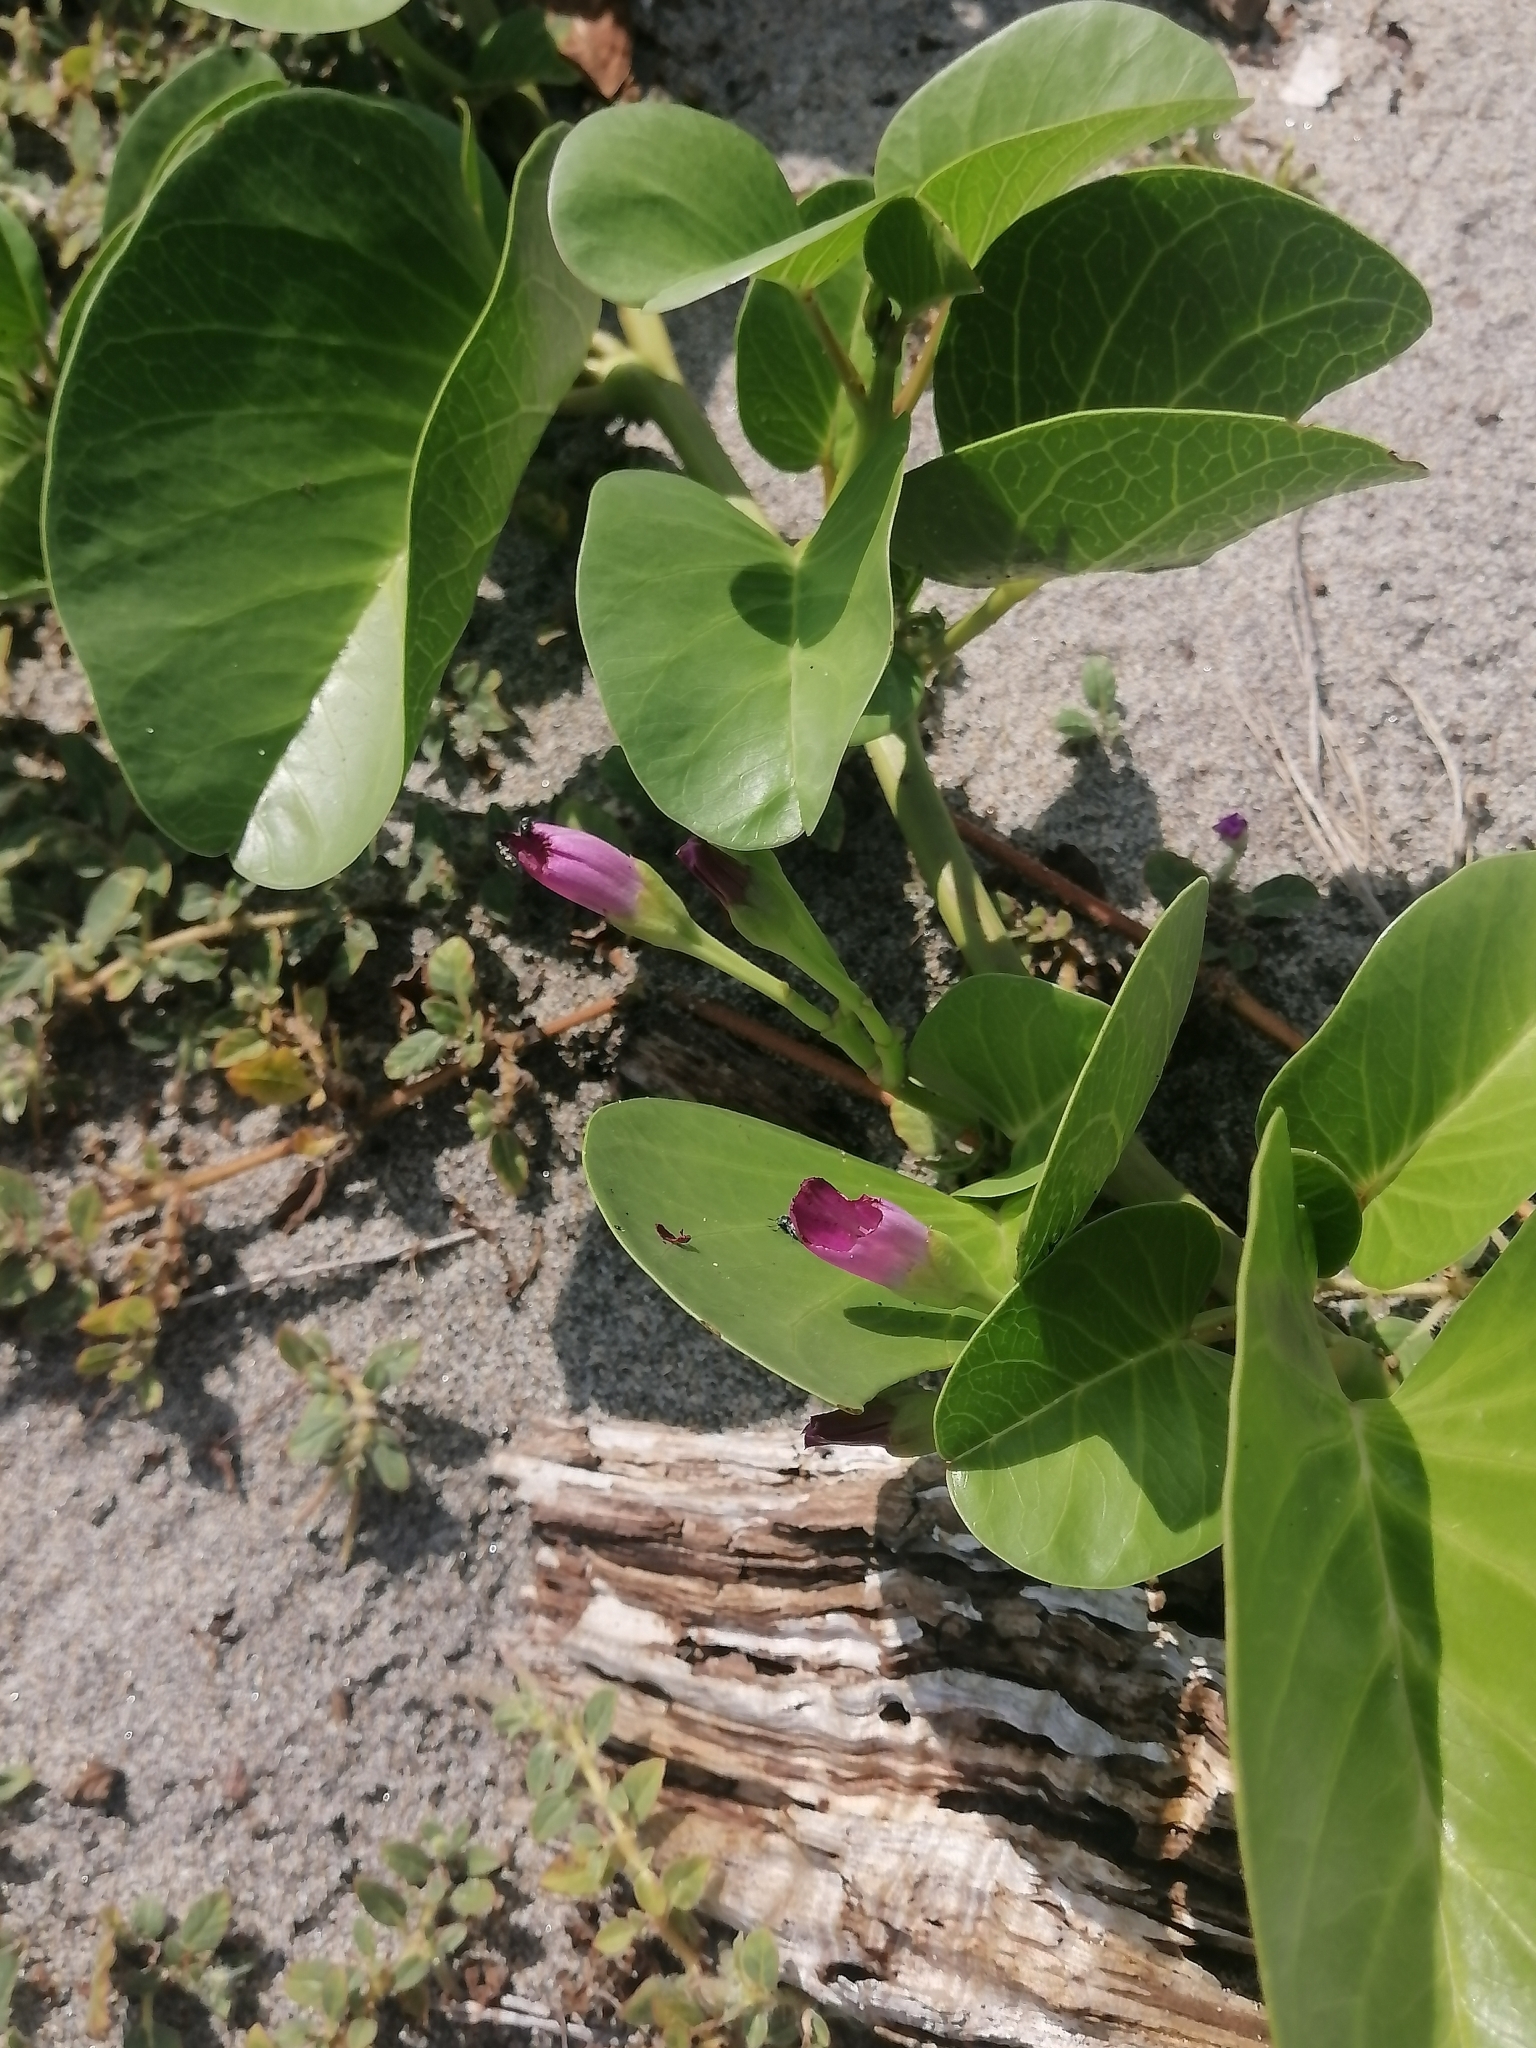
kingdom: Plantae
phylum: Tracheophyta
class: Magnoliopsida
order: Solanales
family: Convolvulaceae
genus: Ipomoea
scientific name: Ipomoea pes-caprae
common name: Beach morning glory
